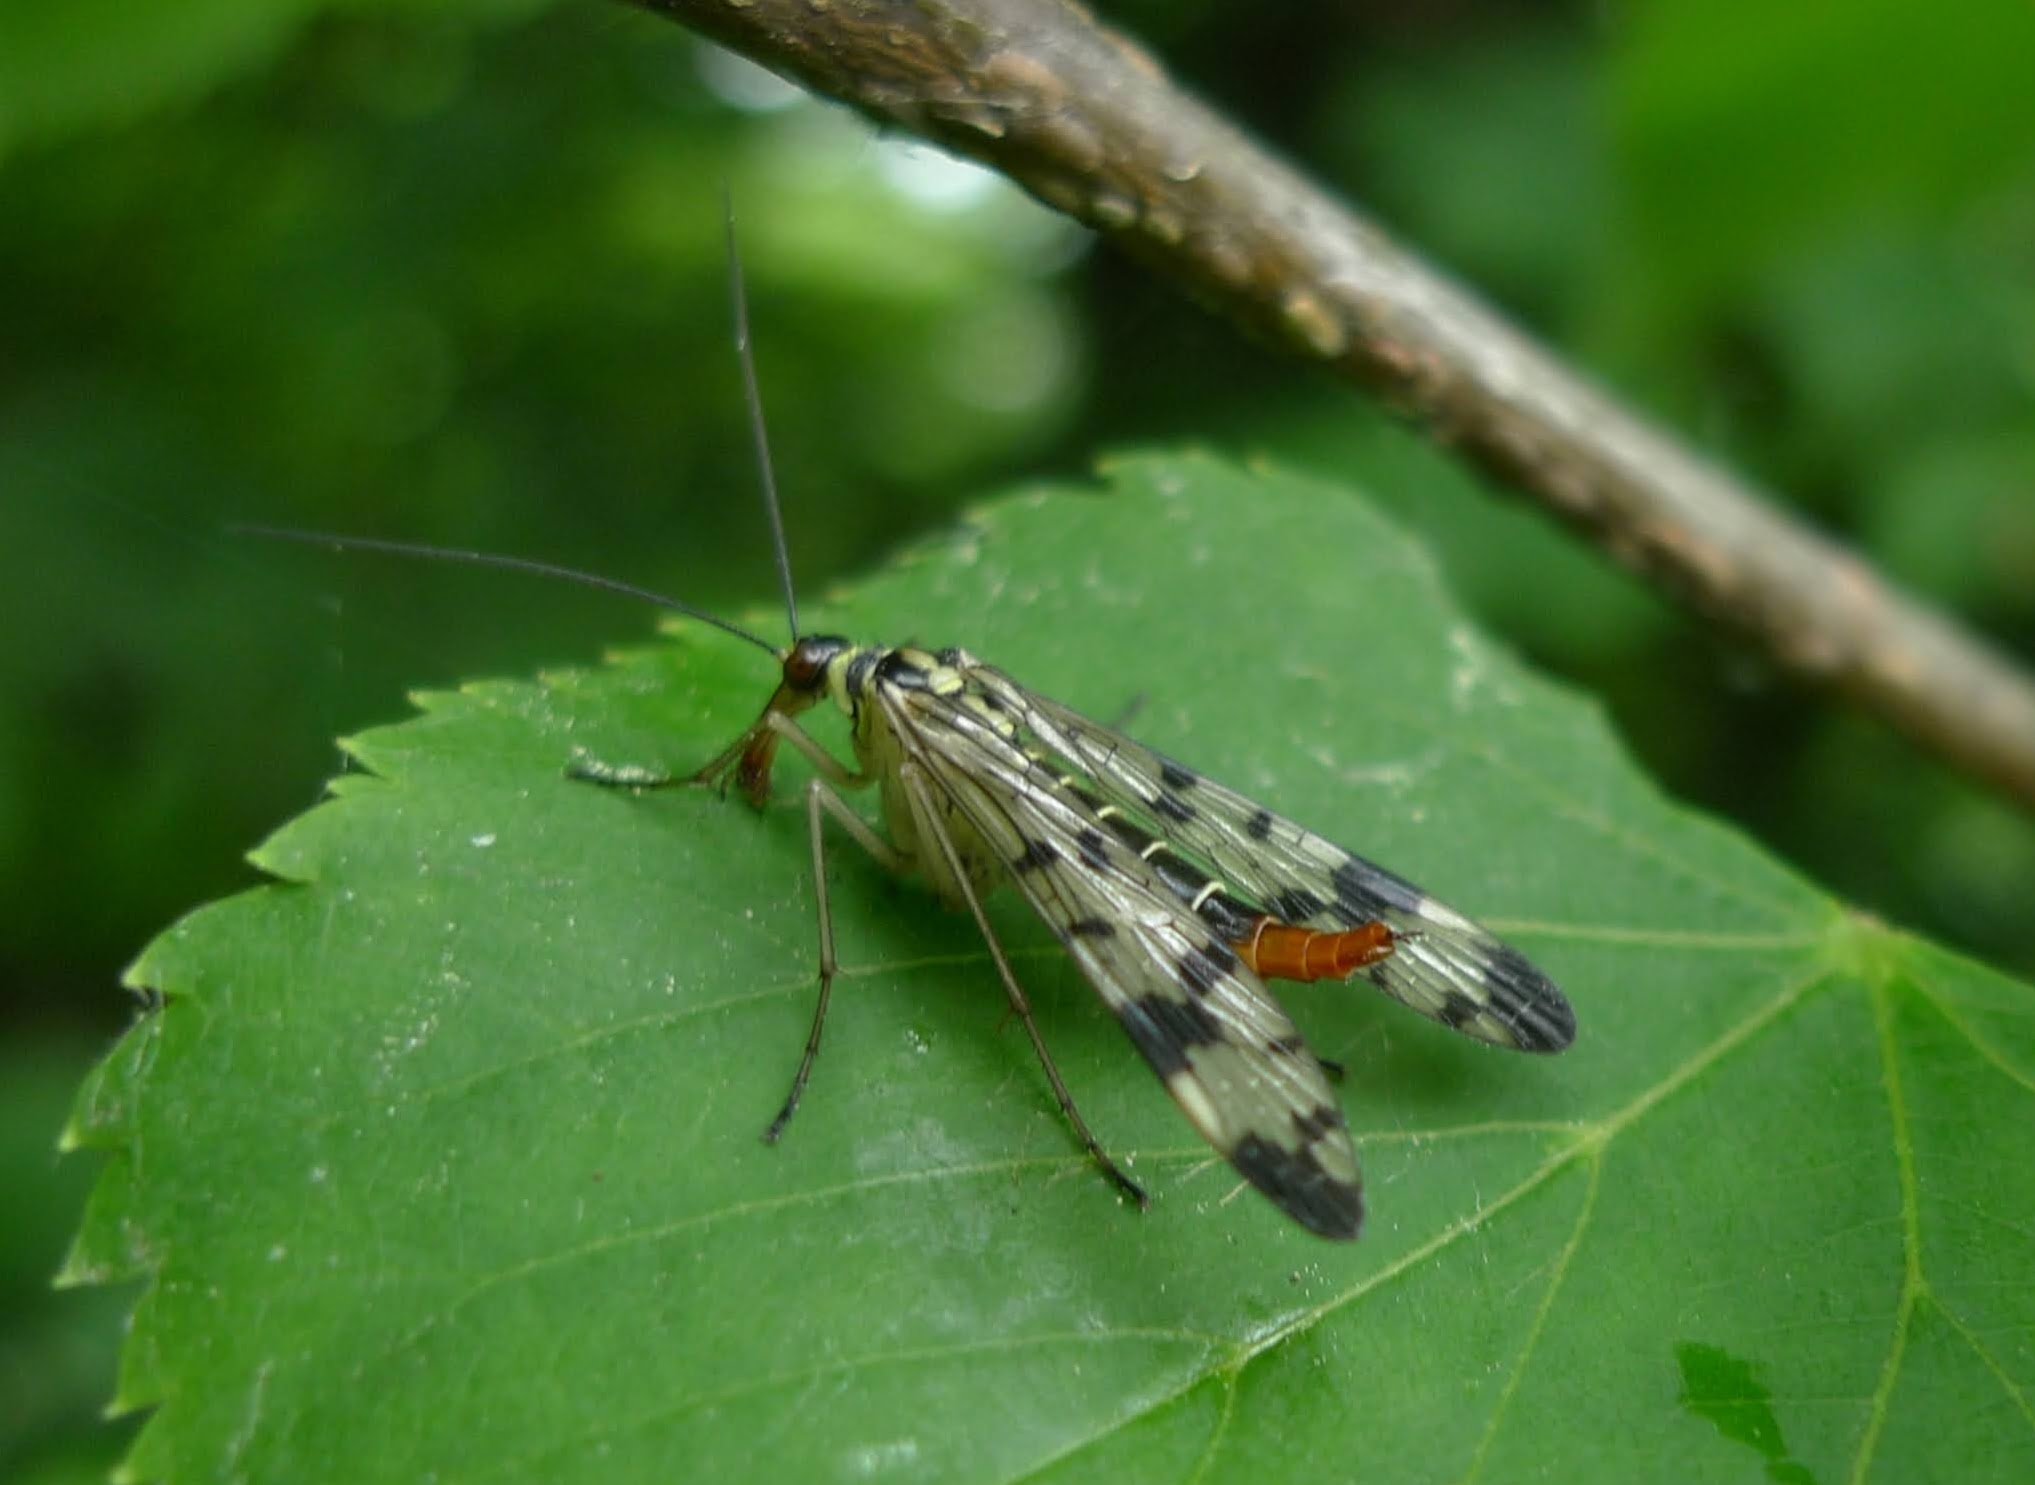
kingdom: Animalia
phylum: Arthropoda
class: Insecta
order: Mecoptera
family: Panorpidae
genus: Panorpa
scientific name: Panorpa communis
